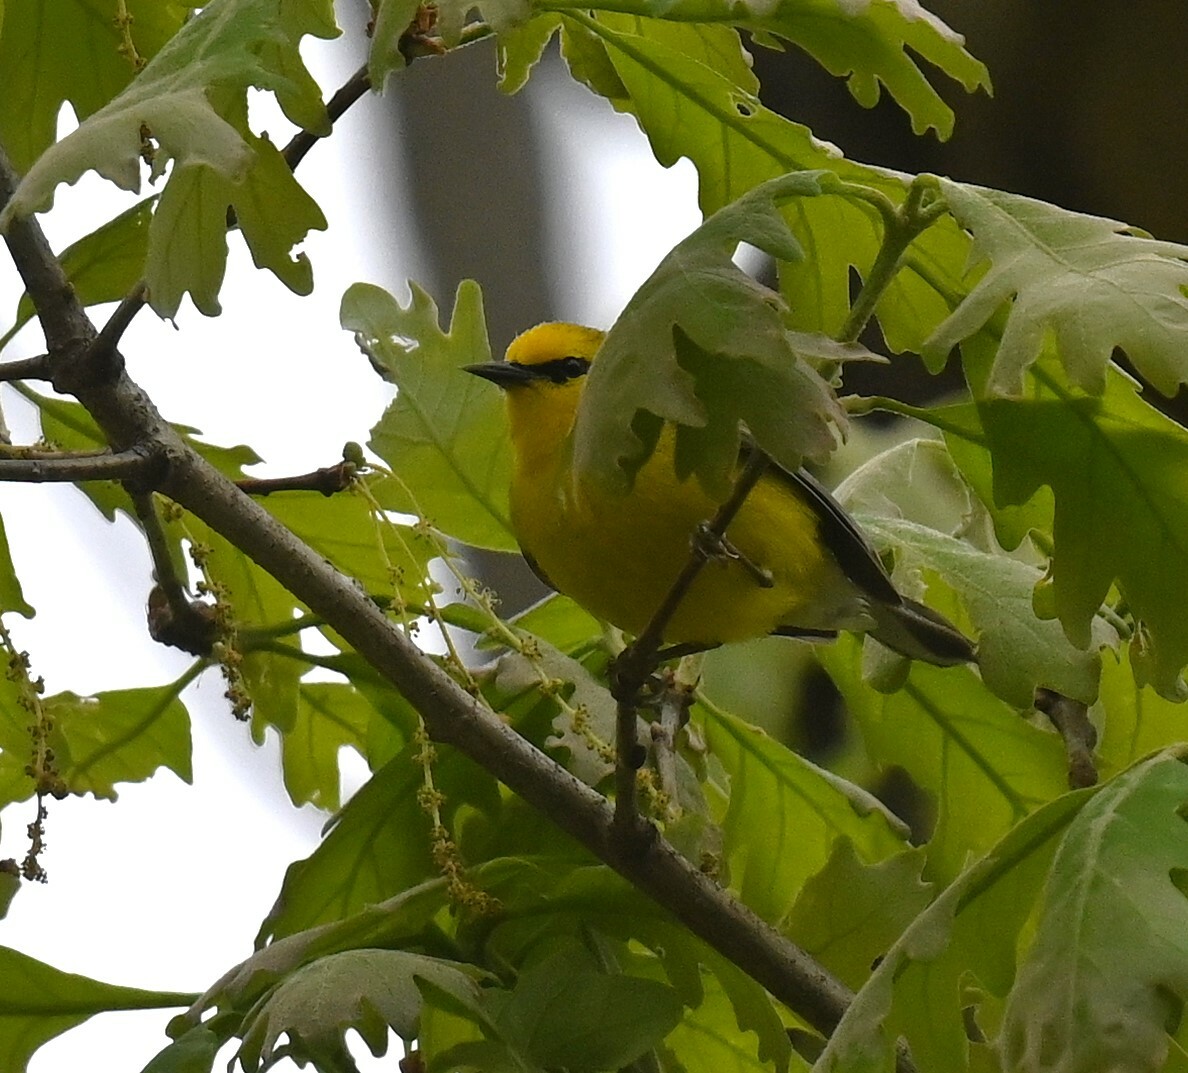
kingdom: Animalia
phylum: Chordata
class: Aves
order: Passeriformes
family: Parulidae
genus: Vermivora
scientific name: Vermivora cyanoptera
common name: Blue-winged warbler
